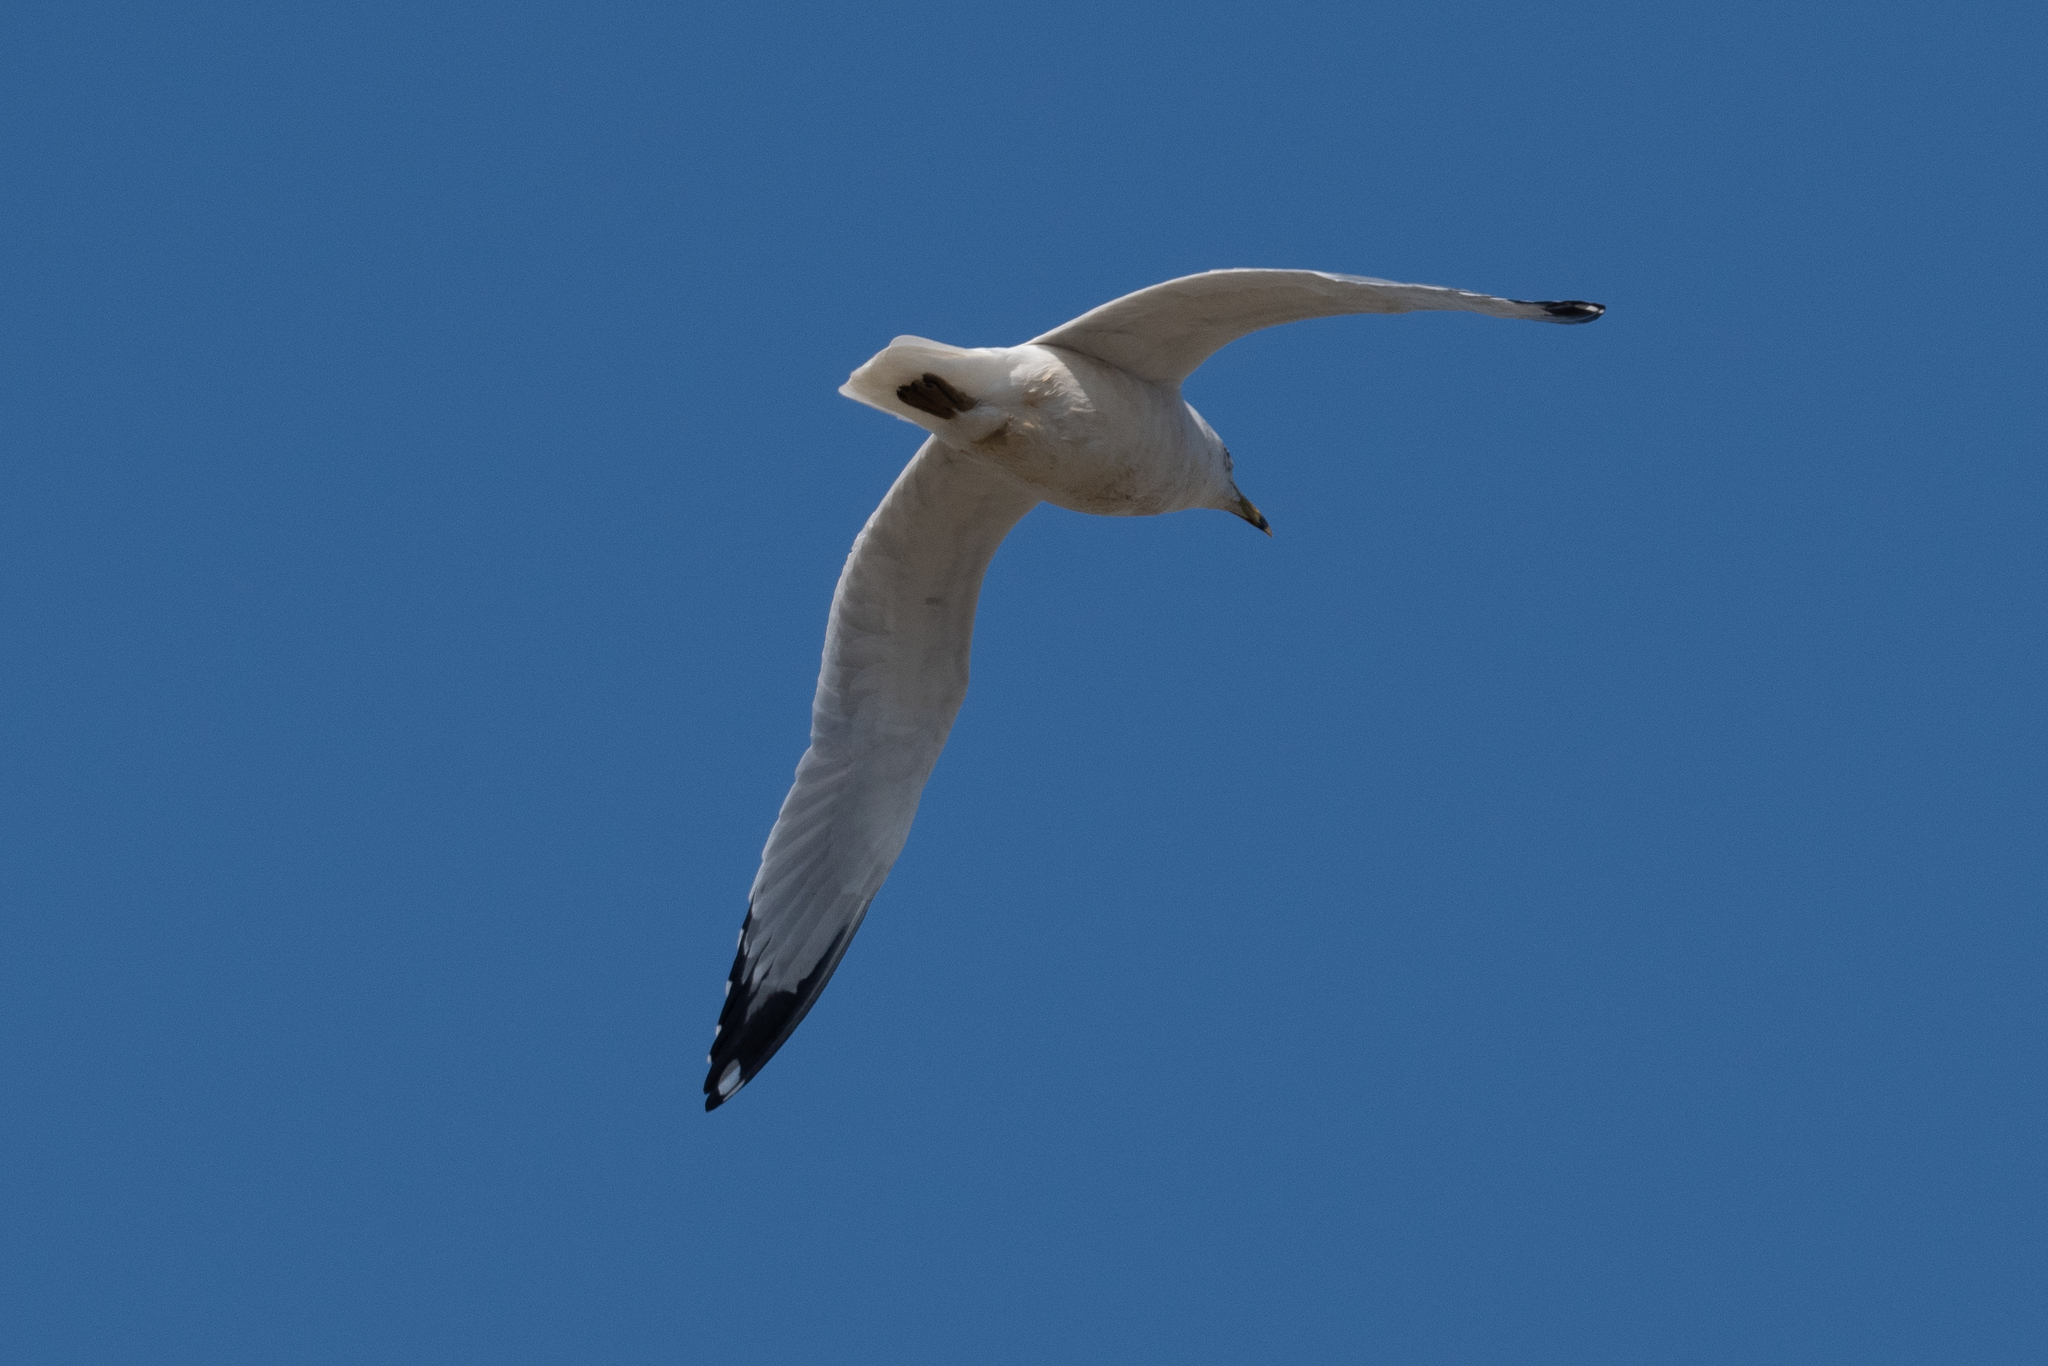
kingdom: Animalia
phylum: Chordata
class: Aves
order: Charadriiformes
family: Laridae
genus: Larus
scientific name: Larus delawarensis
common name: Ring-billed gull
